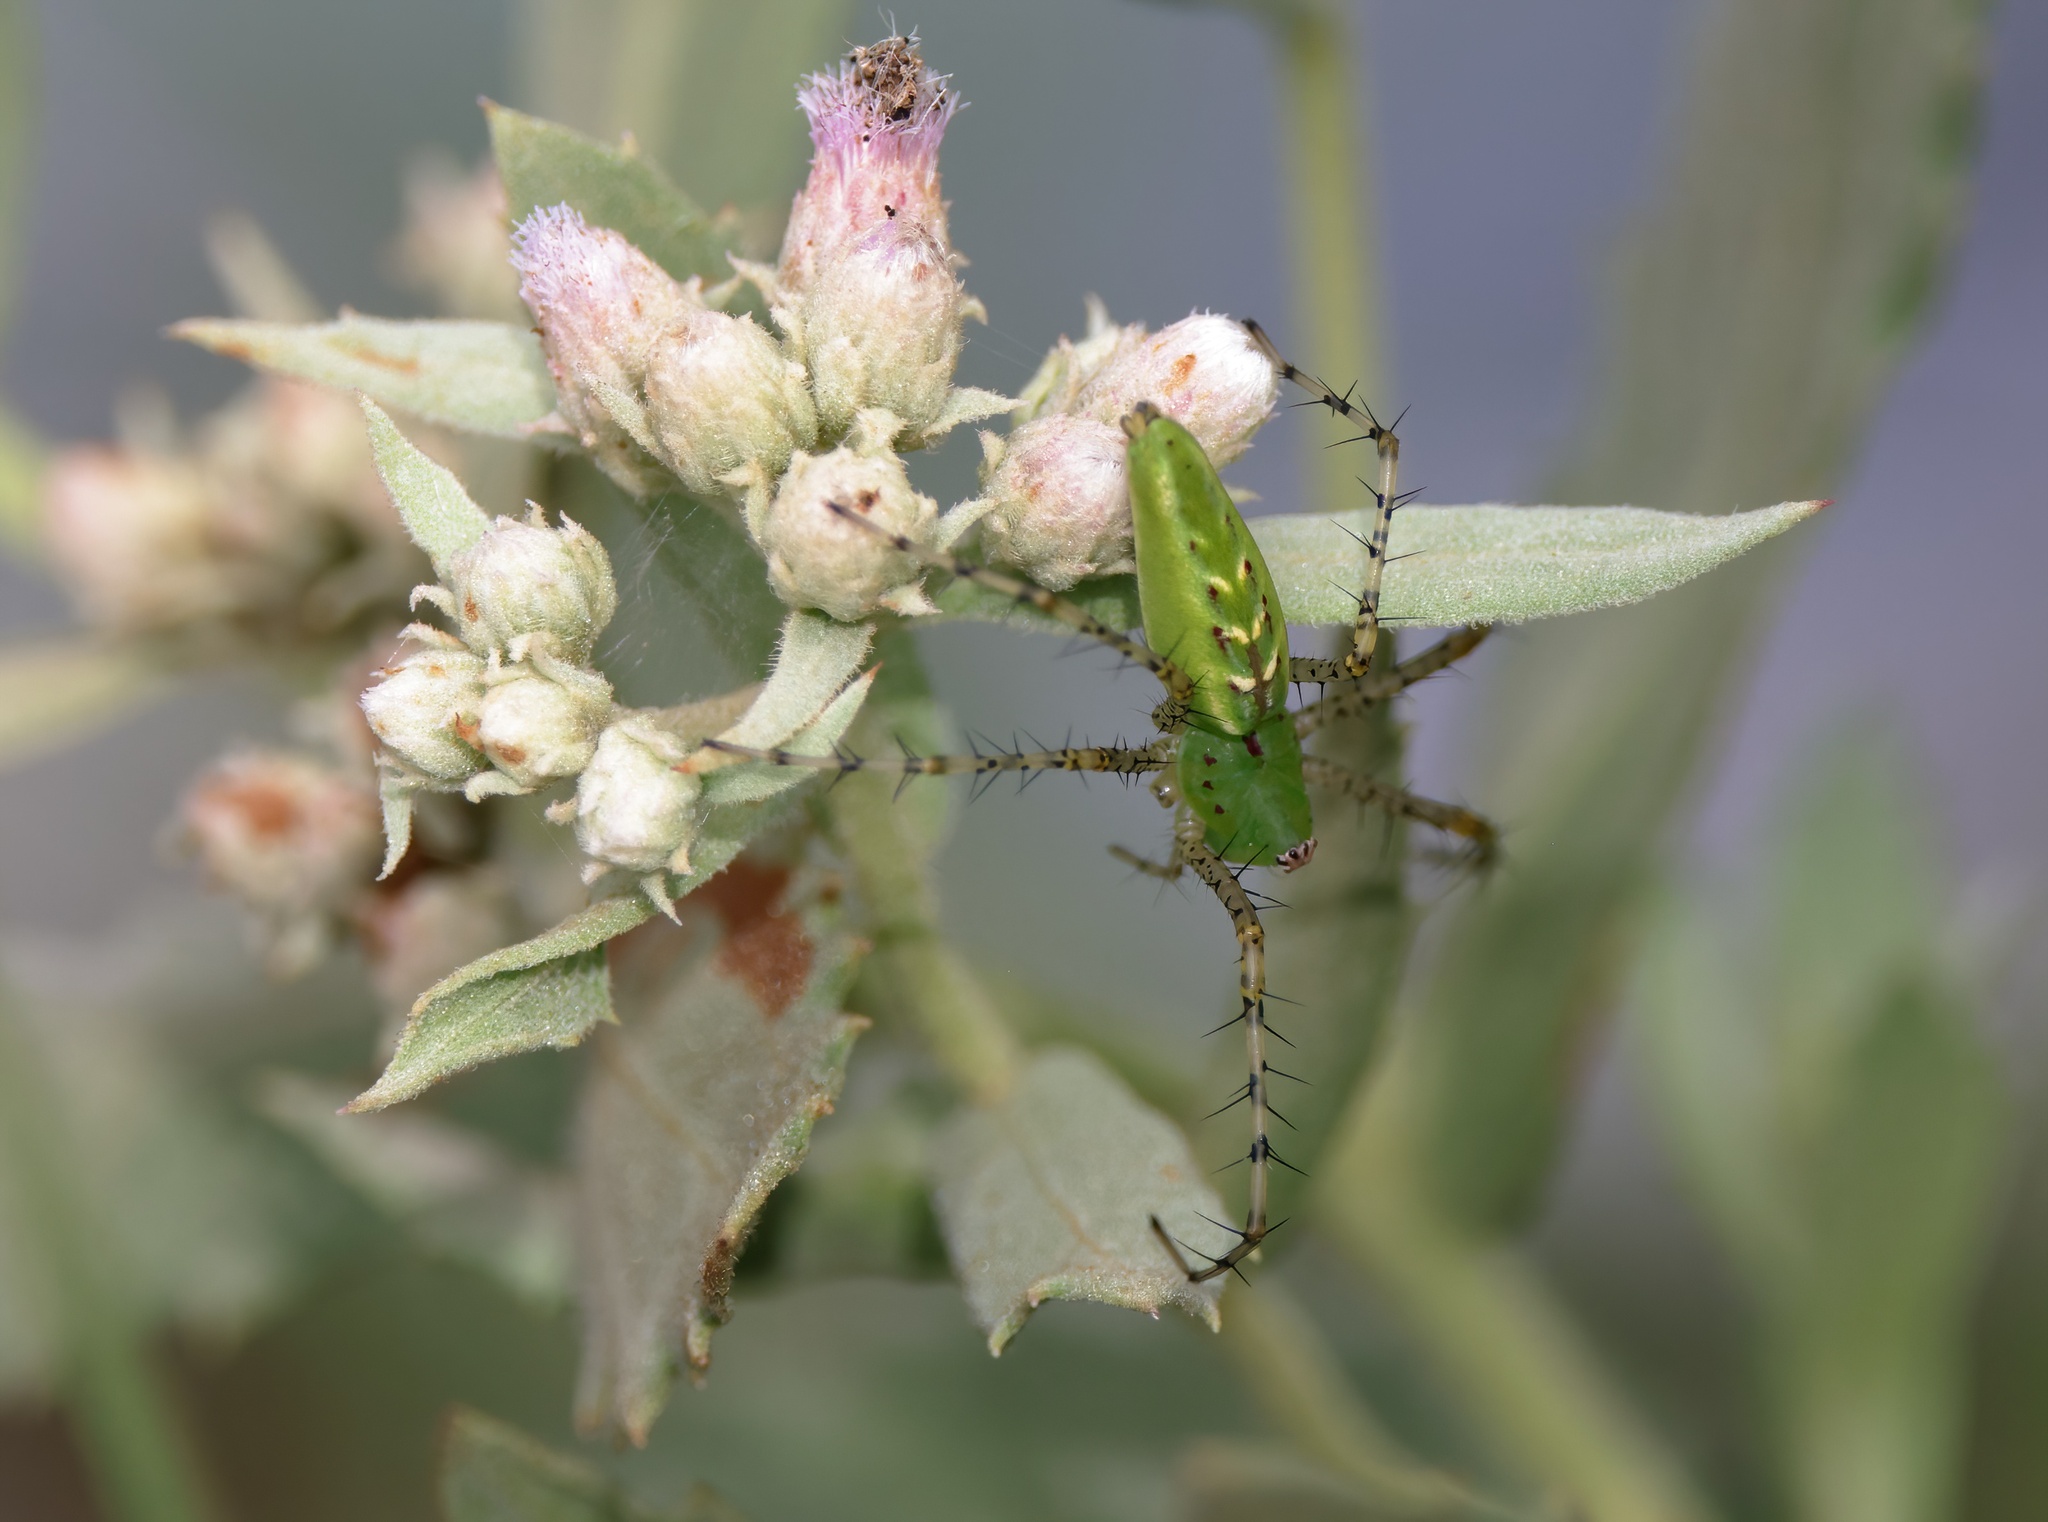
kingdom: Animalia
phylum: Arthropoda
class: Arachnida
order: Araneae
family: Oxyopidae
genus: Peucetia
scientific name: Peucetia viridans
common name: Lynx spiders
